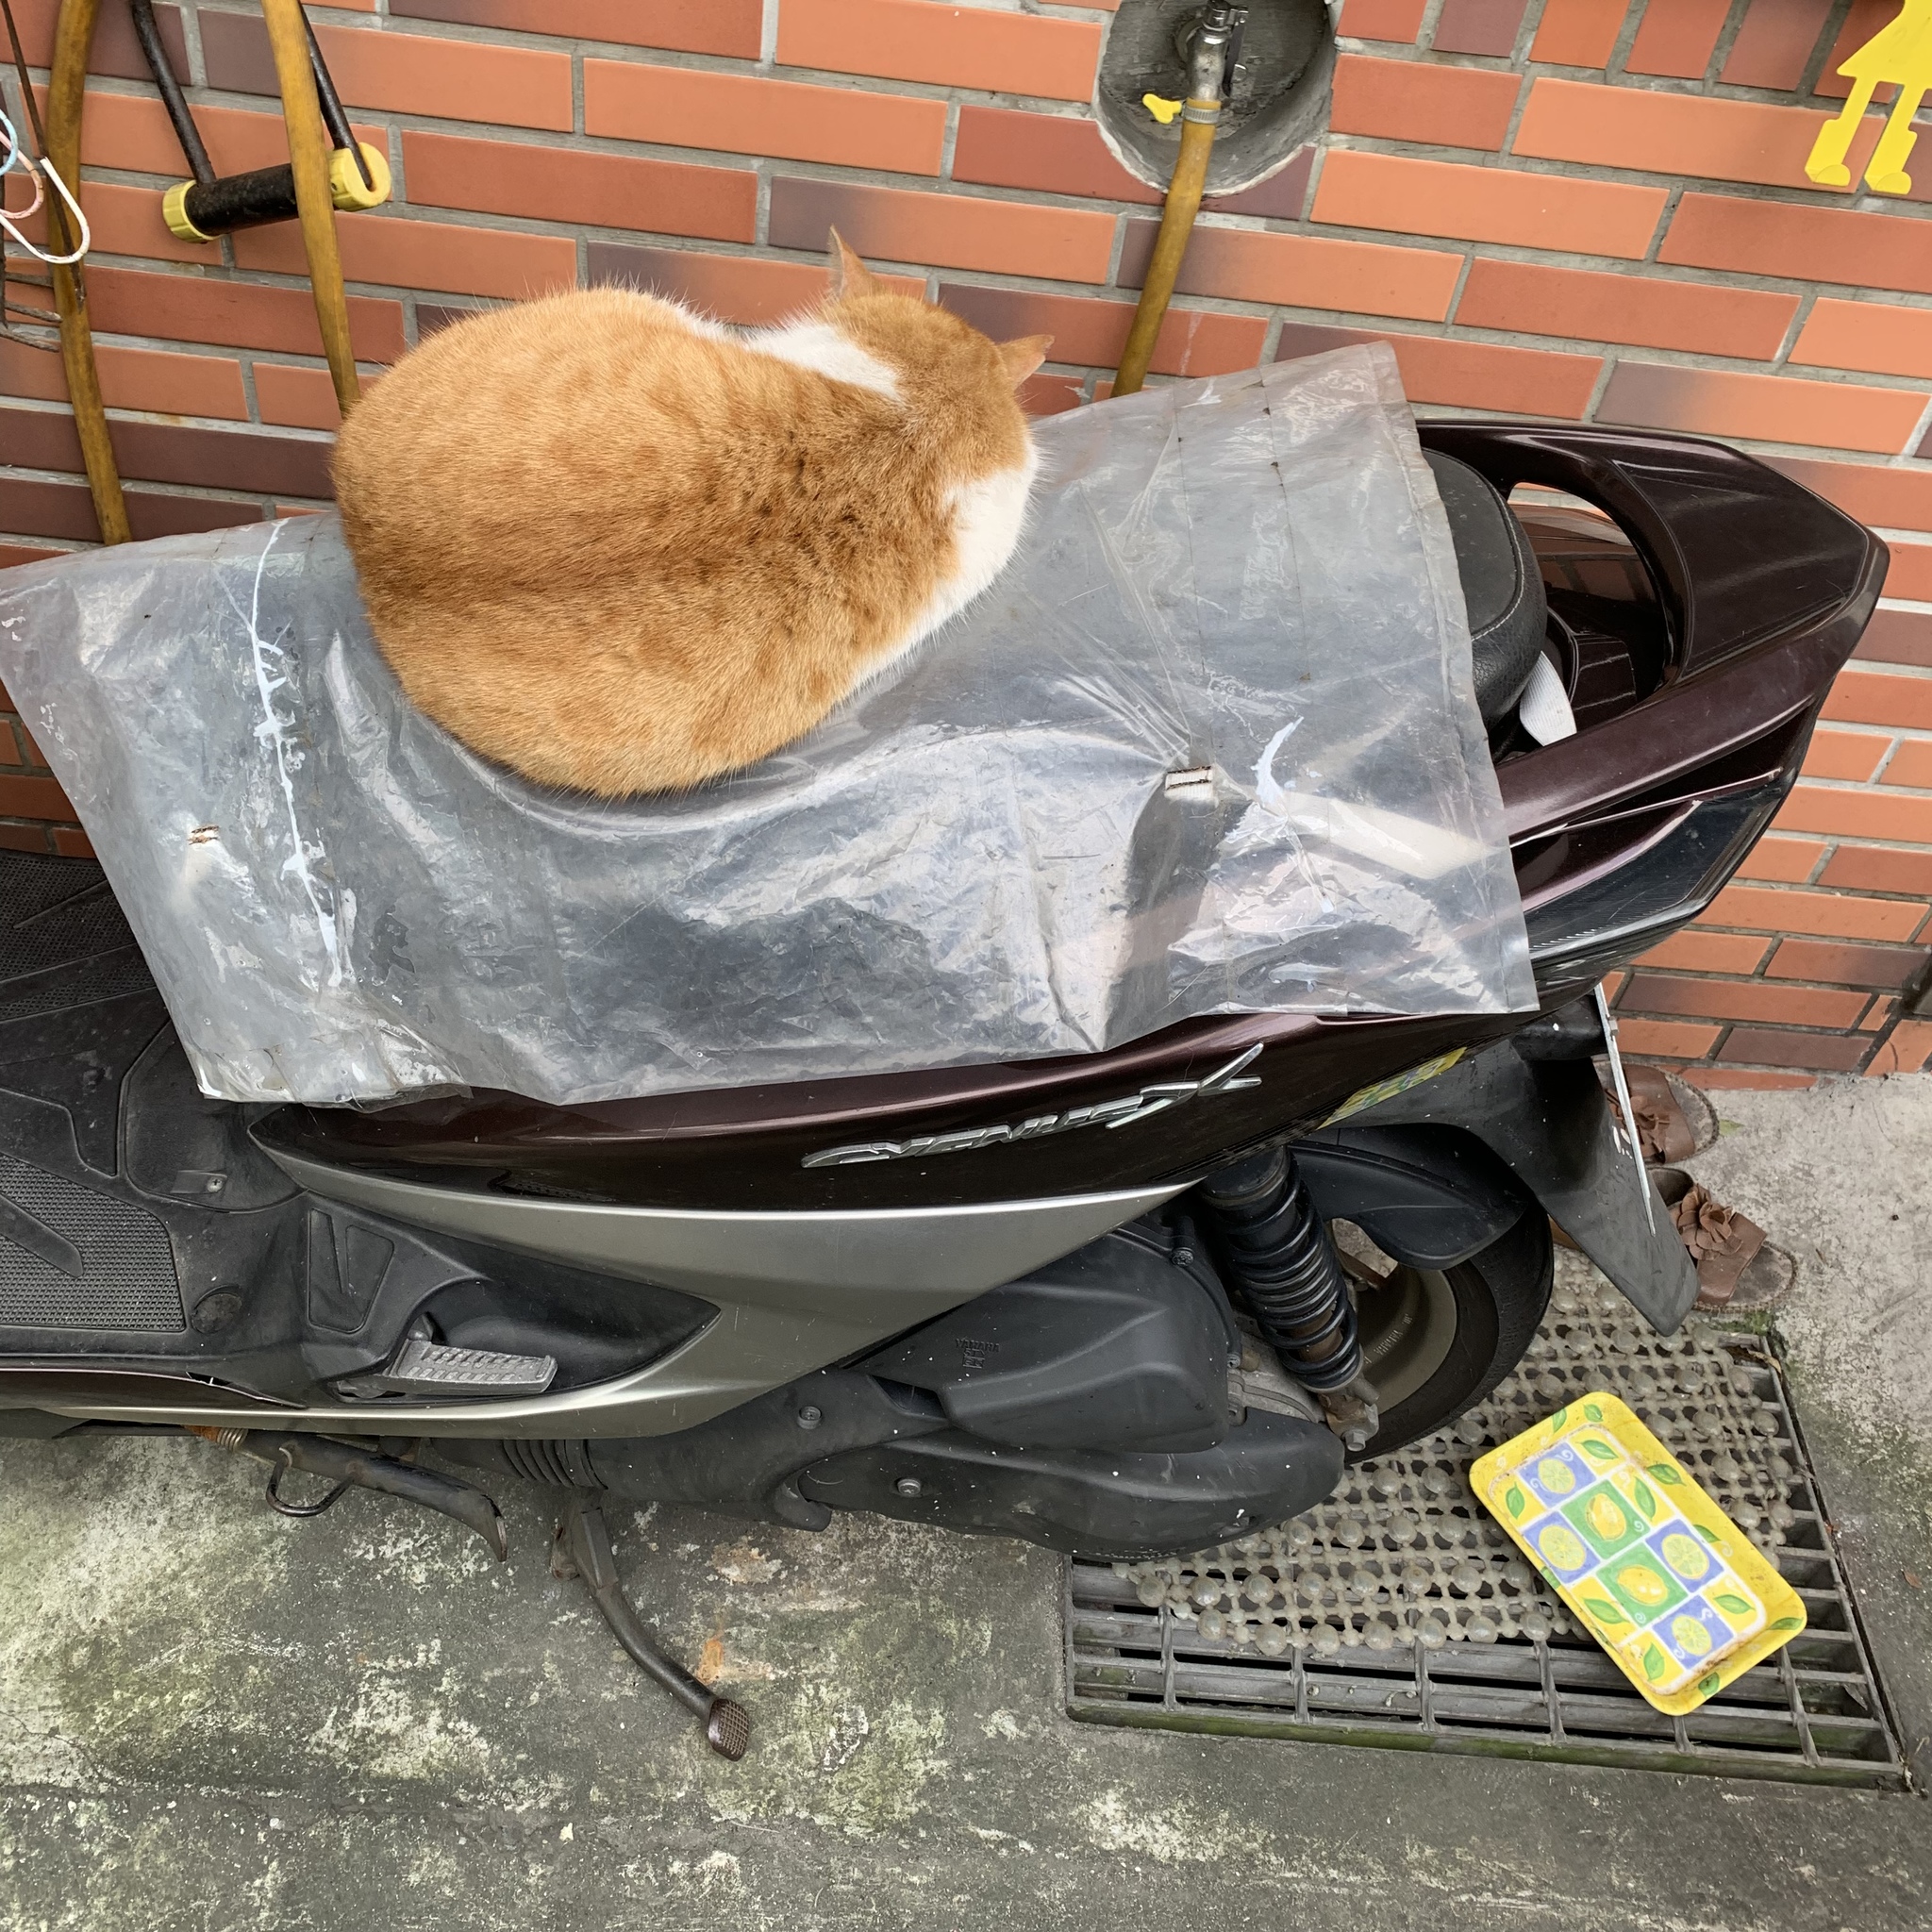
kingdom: Animalia
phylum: Chordata
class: Mammalia
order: Carnivora
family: Felidae
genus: Felis
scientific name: Felis catus
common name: Domestic cat
